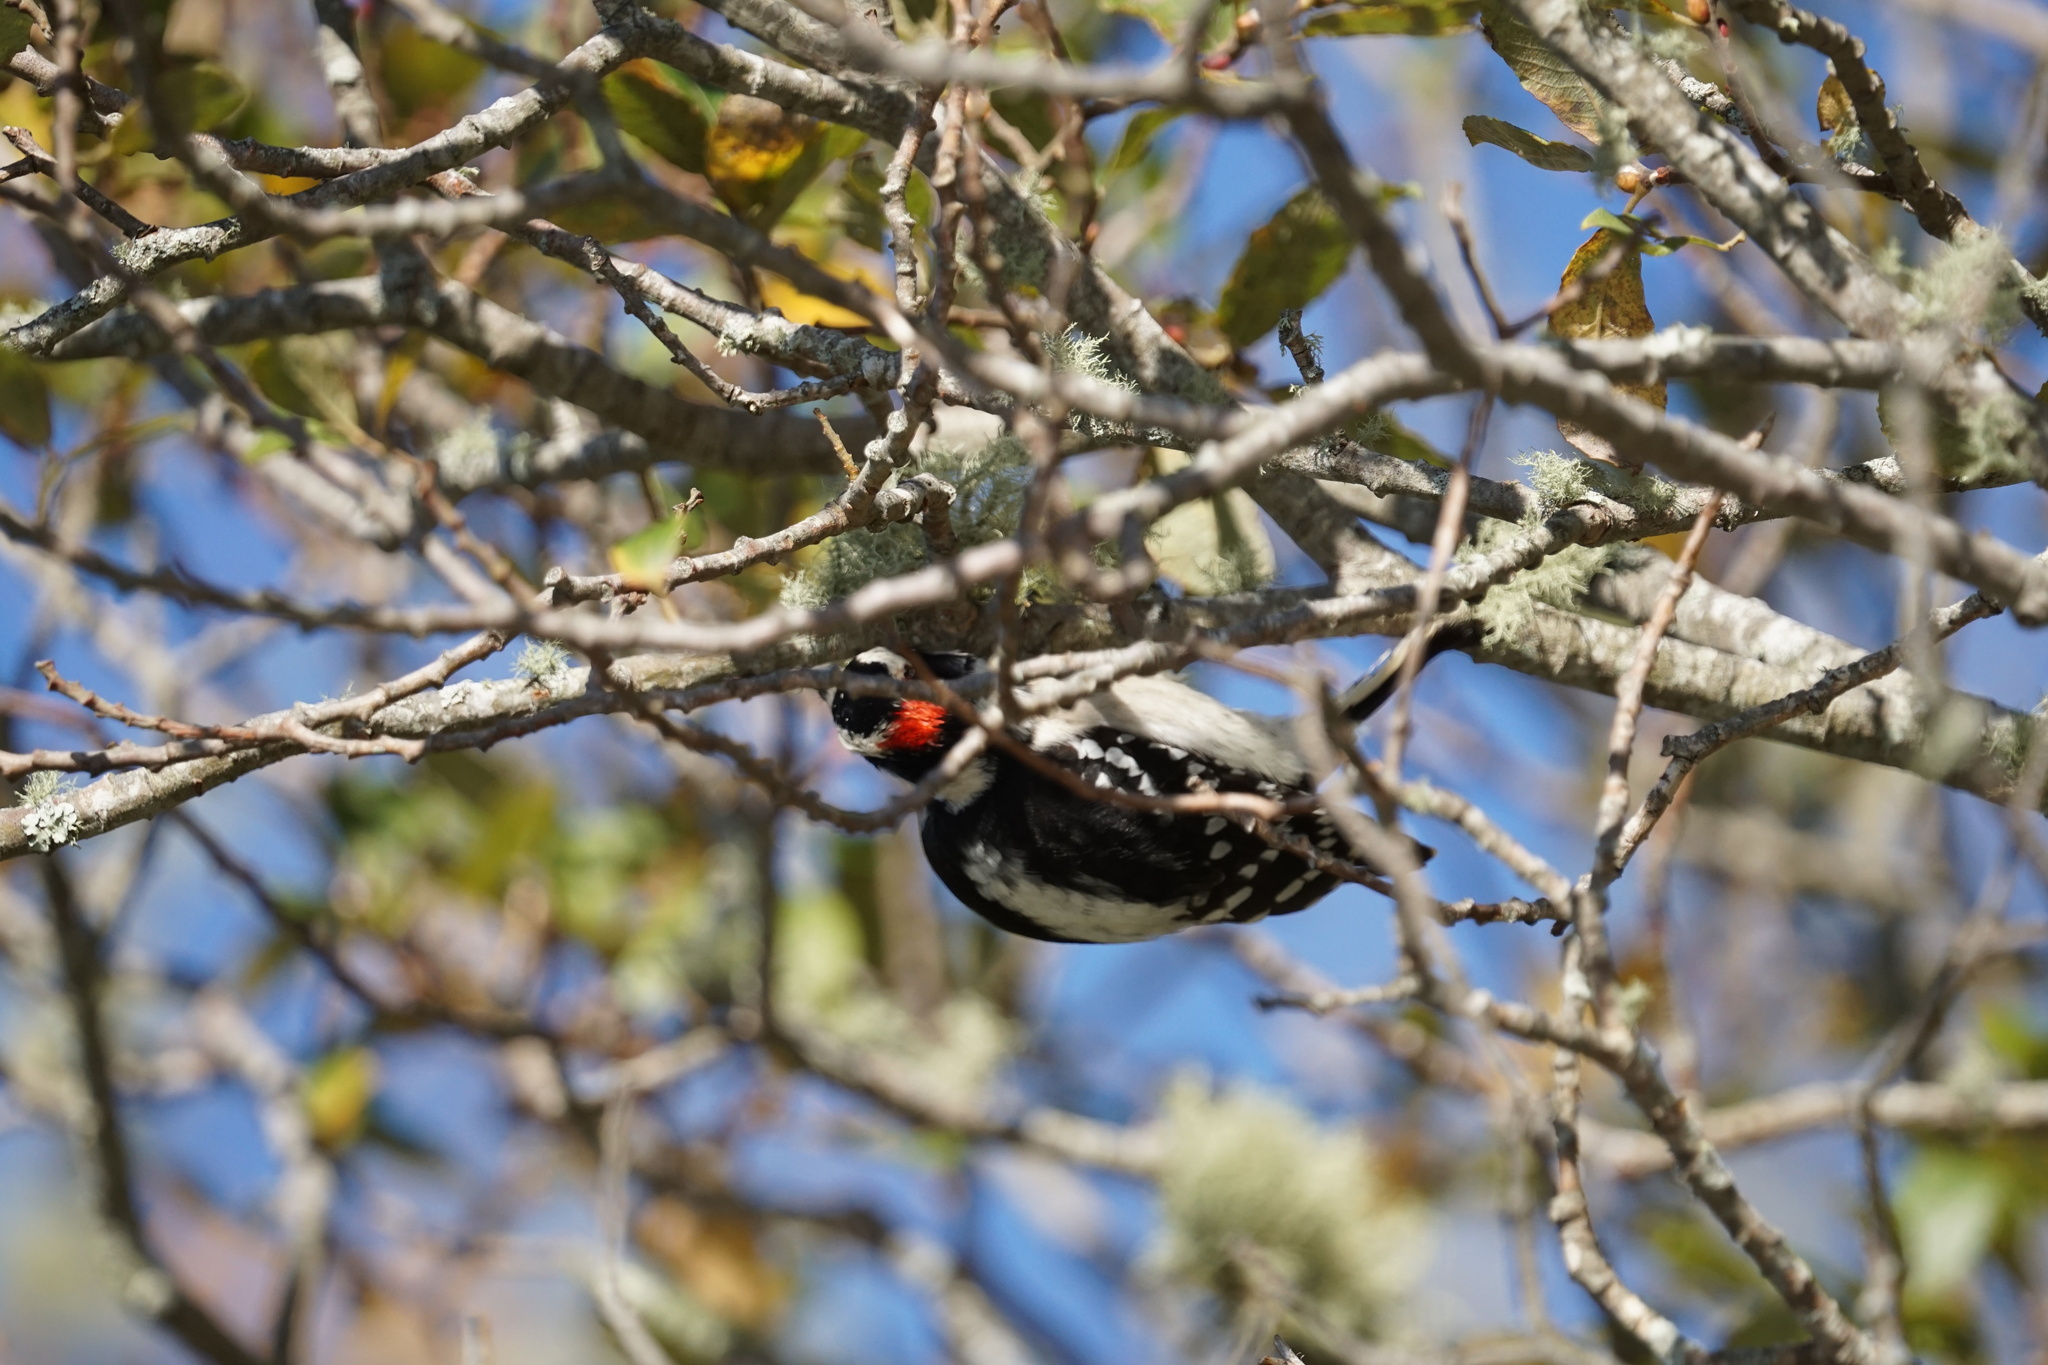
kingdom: Animalia
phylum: Chordata
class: Aves
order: Piciformes
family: Picidae
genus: Dryobates
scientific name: Dryobates pubescens
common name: Downy woodpecker
